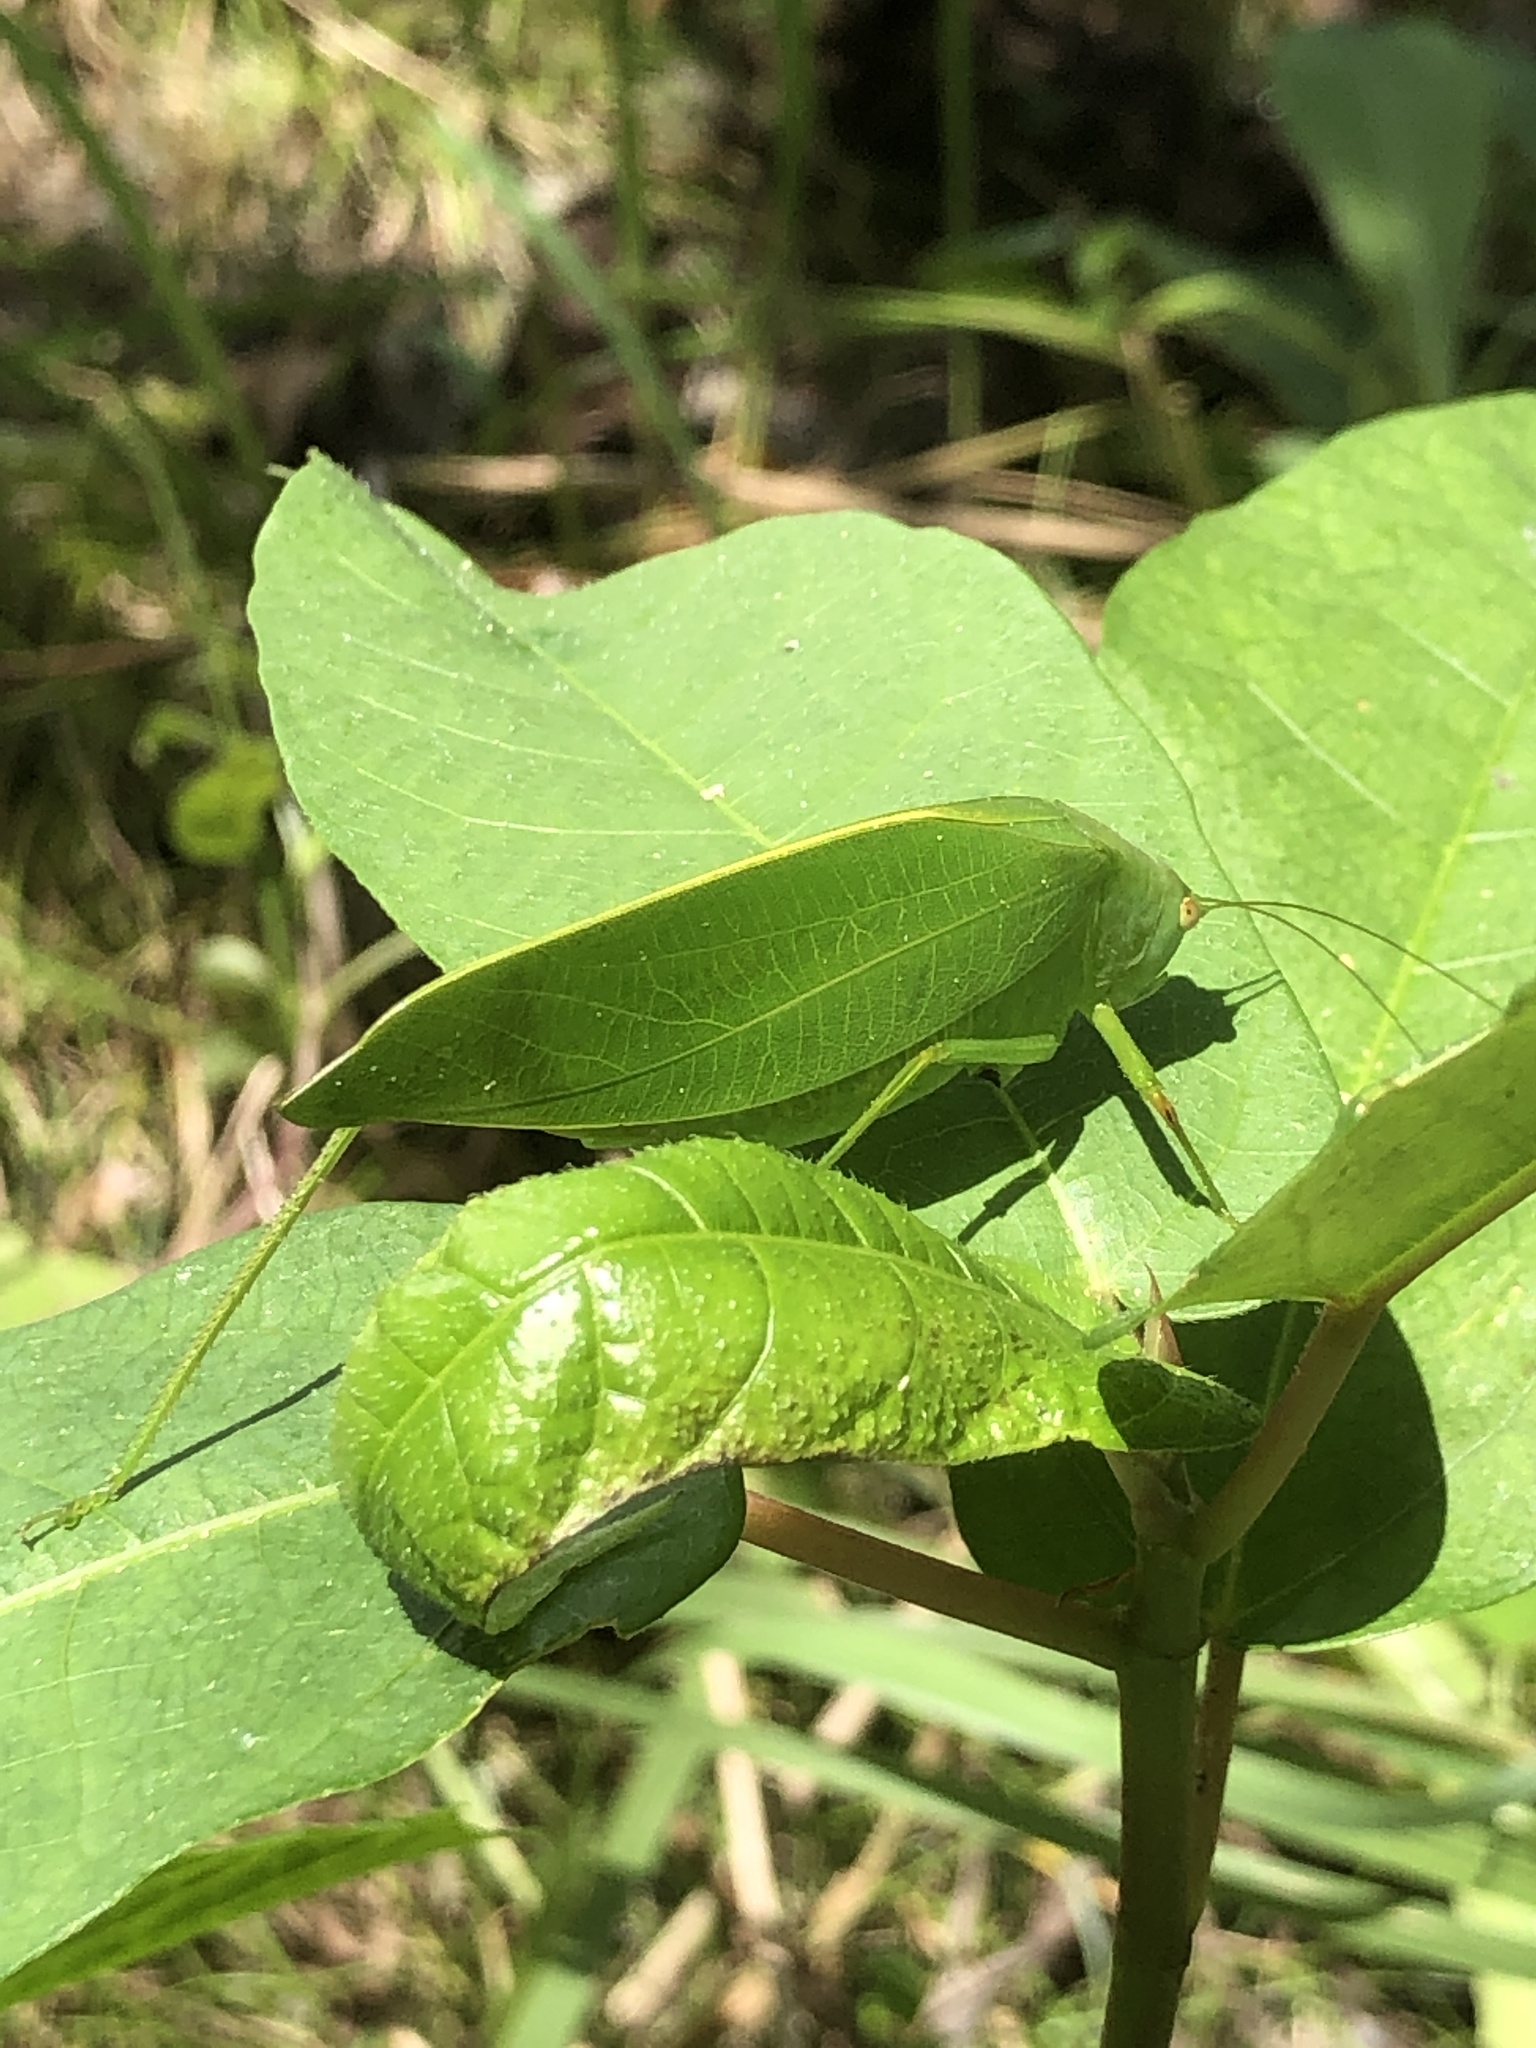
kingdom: Animalia
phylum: Arthropoda
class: Insecta
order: Orthoptera
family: Tettigoniidae
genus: Phaulula
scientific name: Phaulula daitoensis
